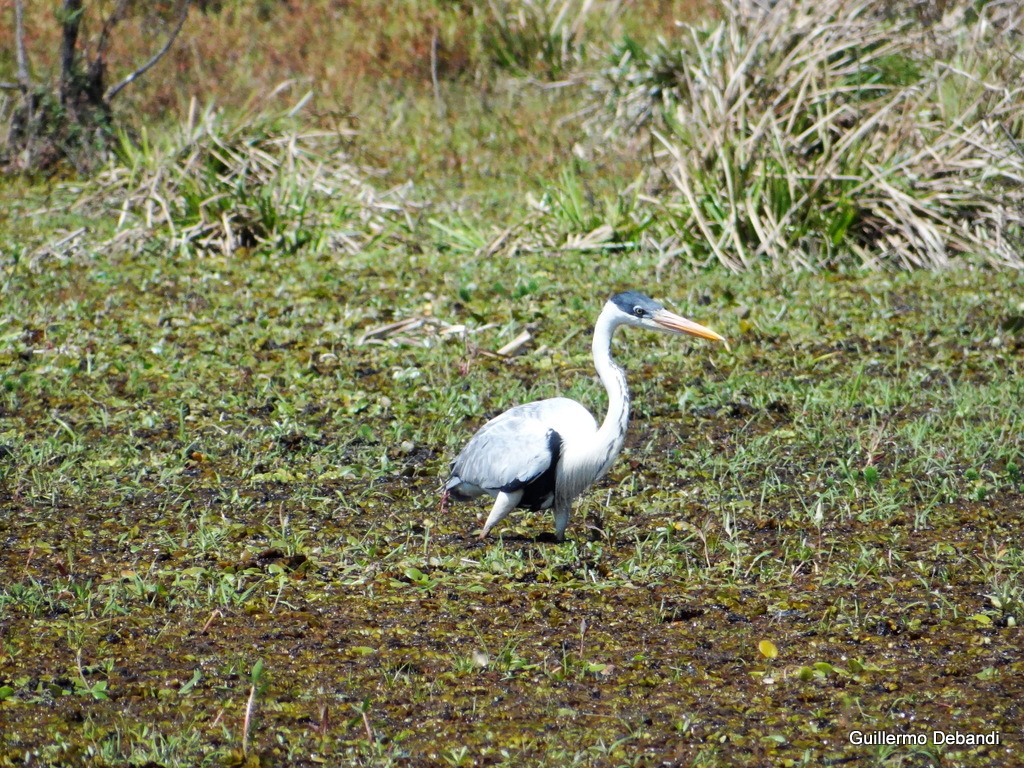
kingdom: Animalia
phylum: Chordata
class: Aves
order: Pelecaniformes
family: Ardeidae
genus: Ardea
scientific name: Ardea cocoi
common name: Cocoi heron
